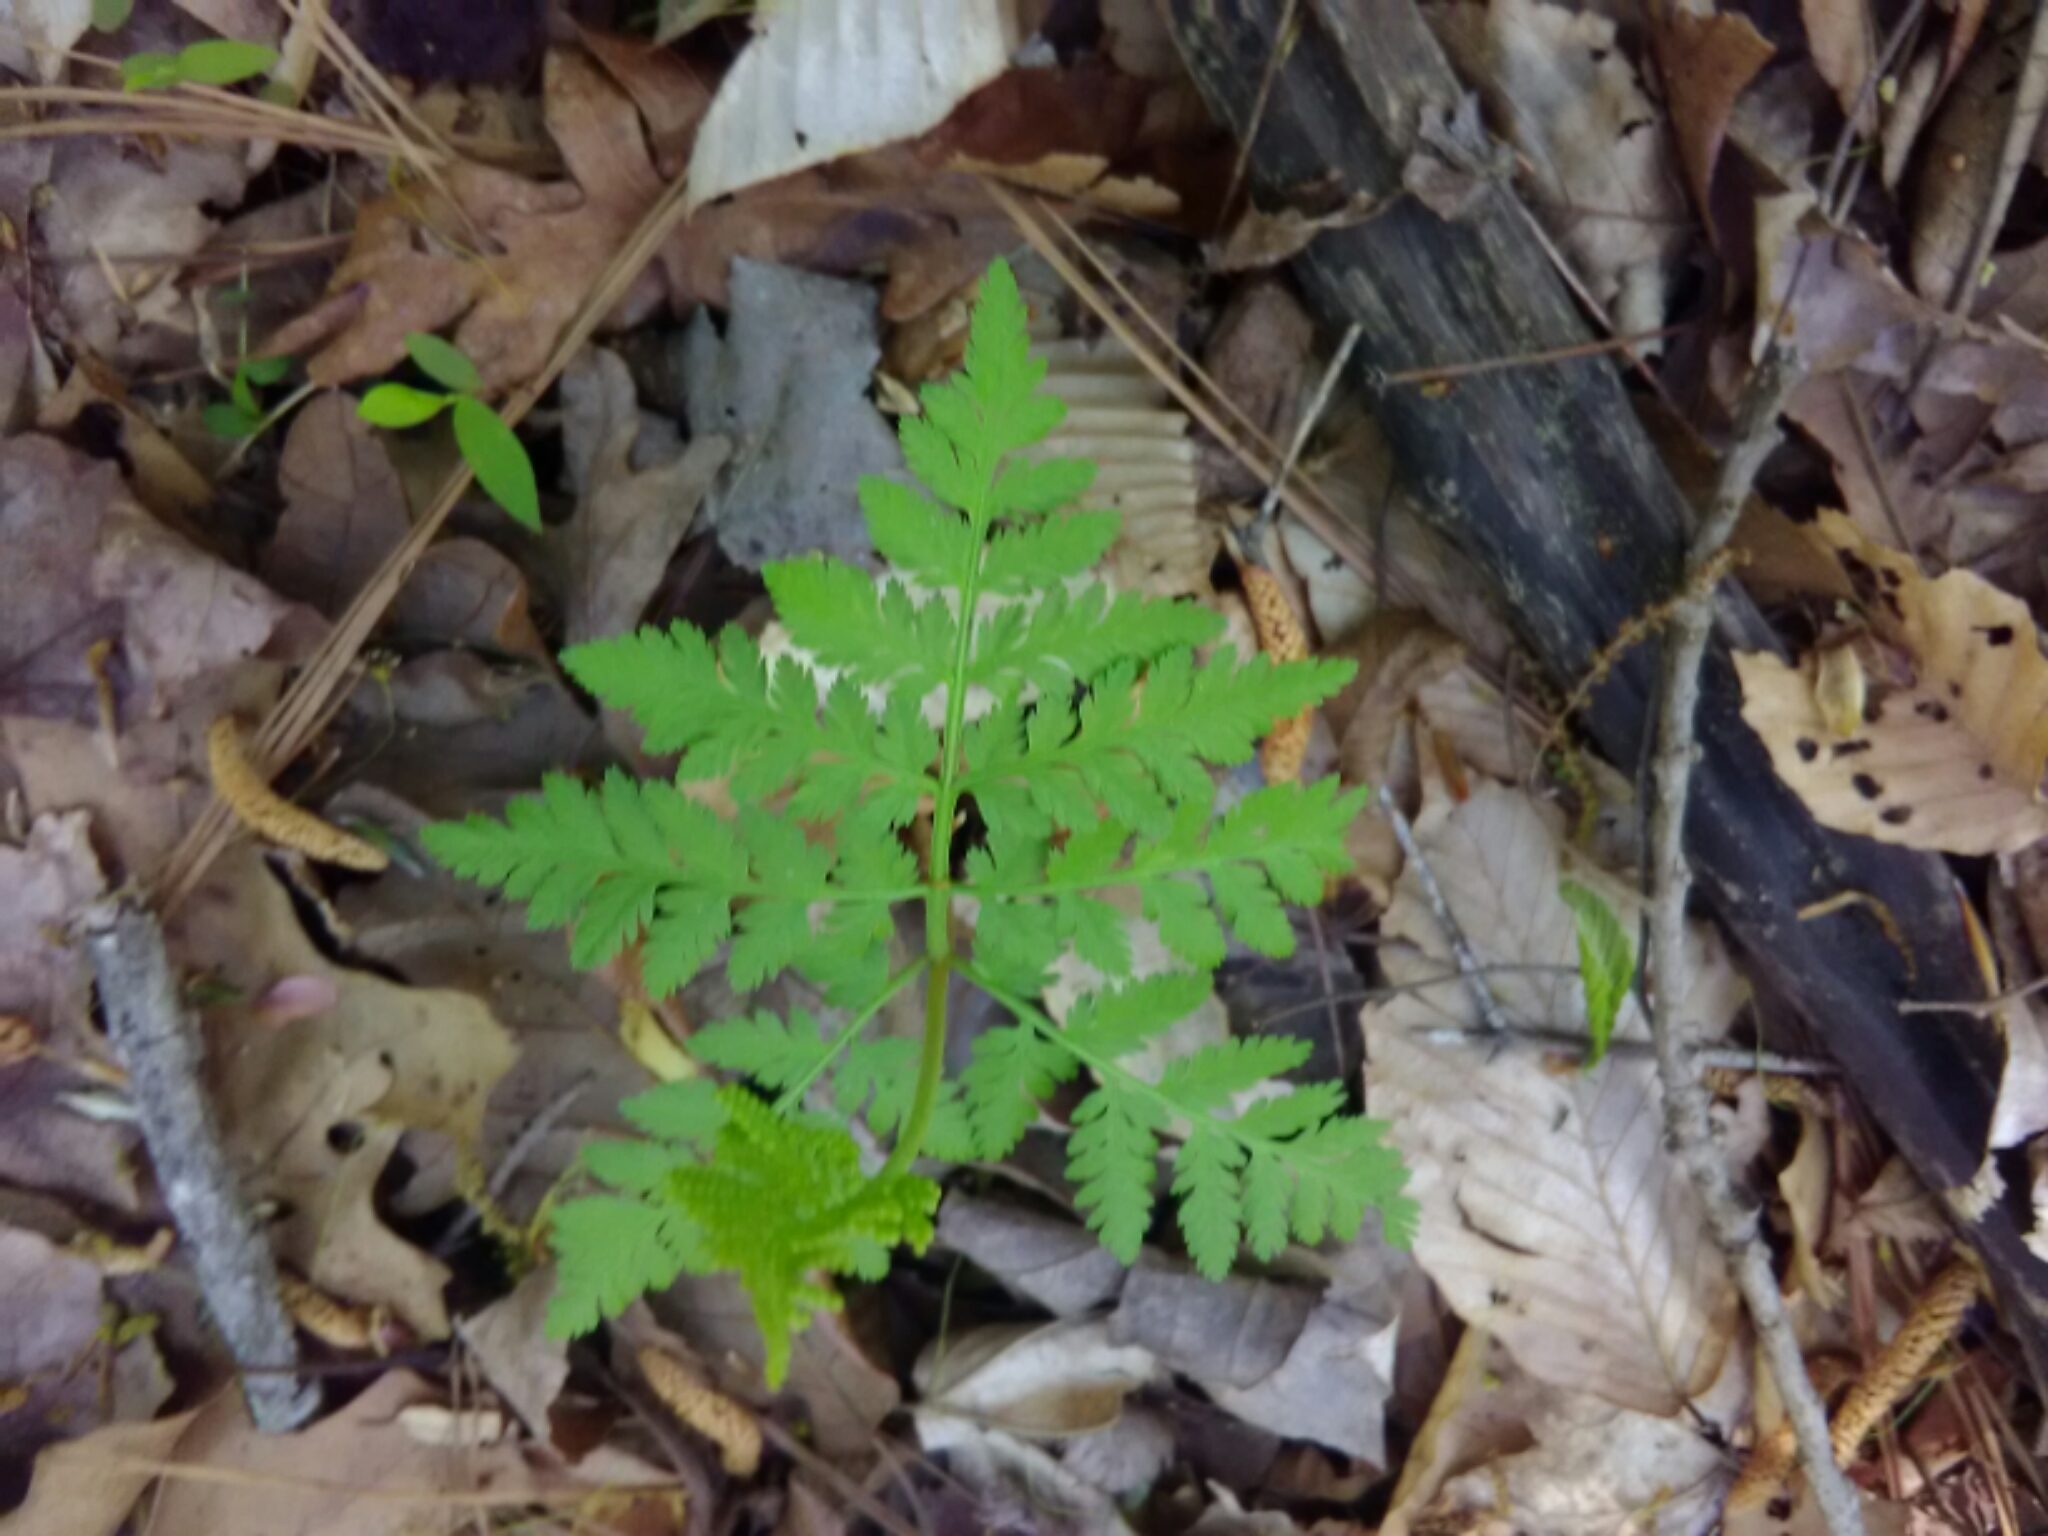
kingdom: Plantae
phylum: Tracheophyta
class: Polypodiopsida
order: Ophioglossales
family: Ophioglossaceae
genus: Botrypus
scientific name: Botrypus virginianus
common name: Common grapefern
